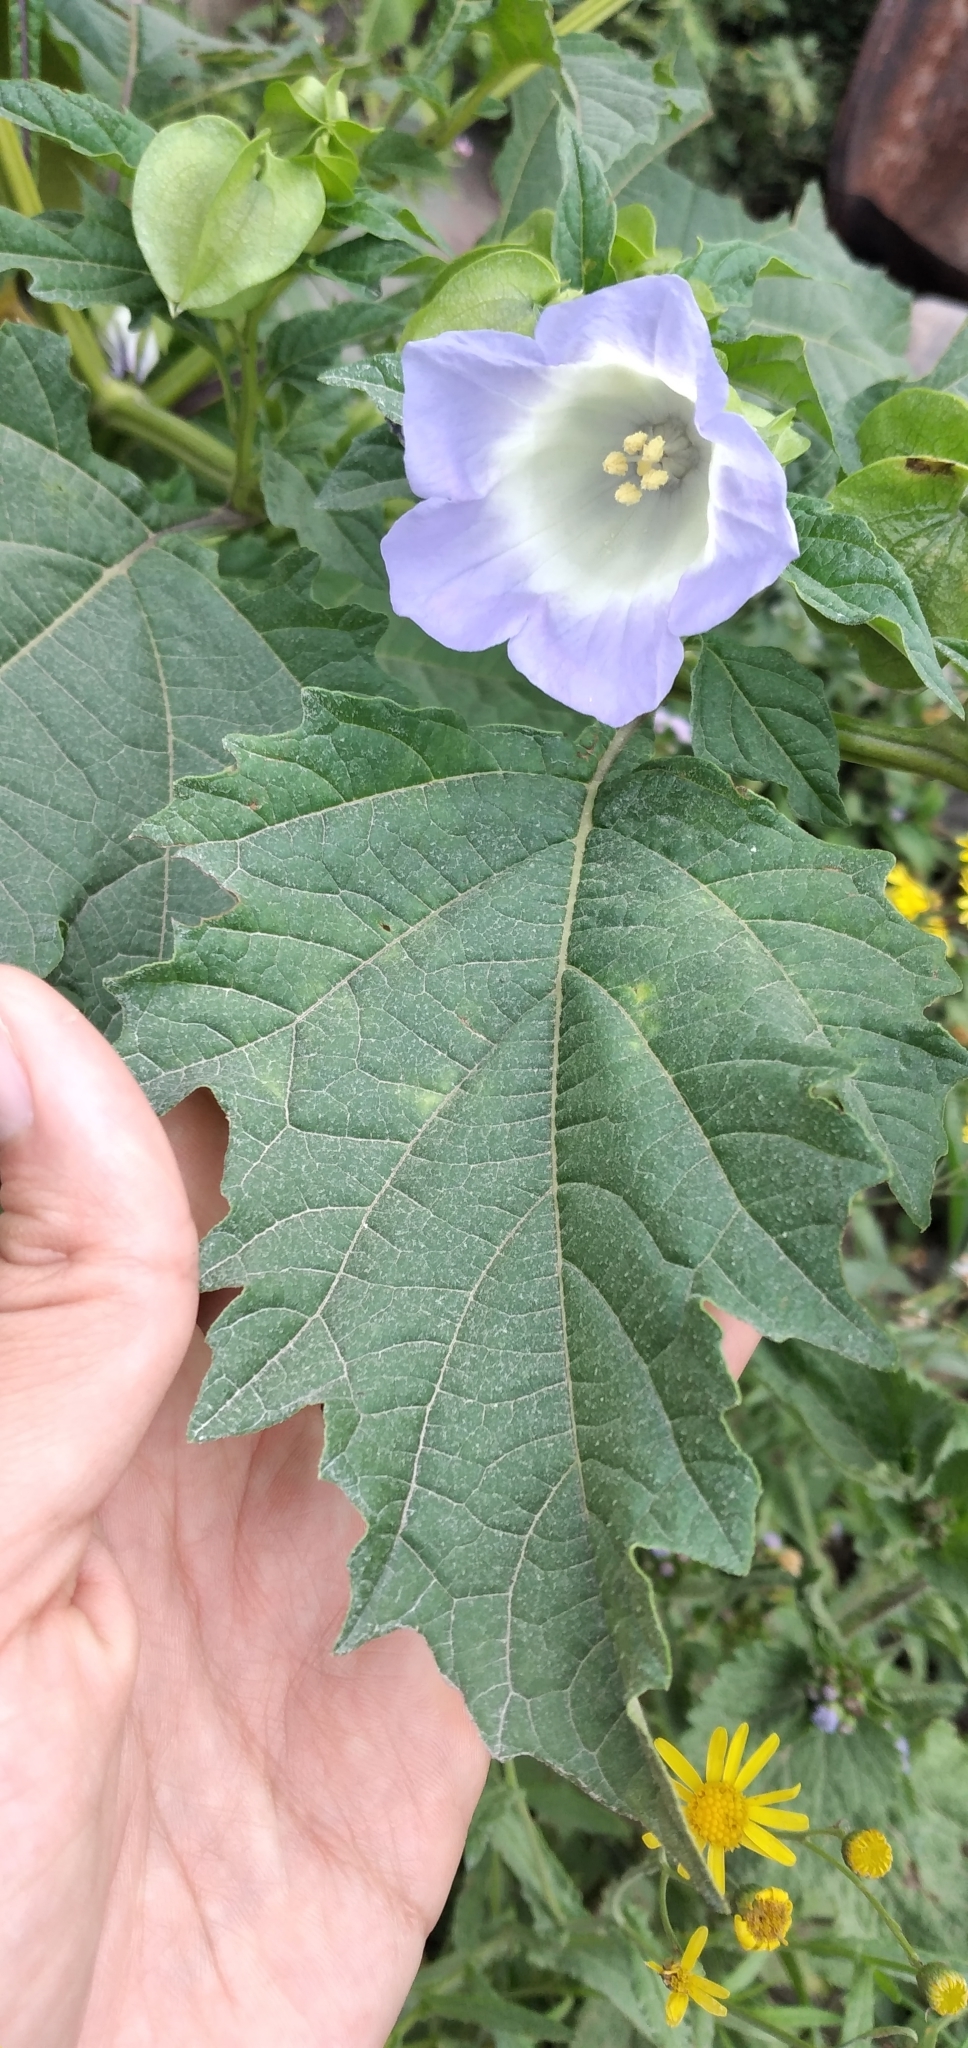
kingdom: Plantae
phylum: Tracheophyta
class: Magnoliopsida
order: Solanales
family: Solanaceae
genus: Nicandra
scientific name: Nicandra physalodes
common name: Apple-of-peru
